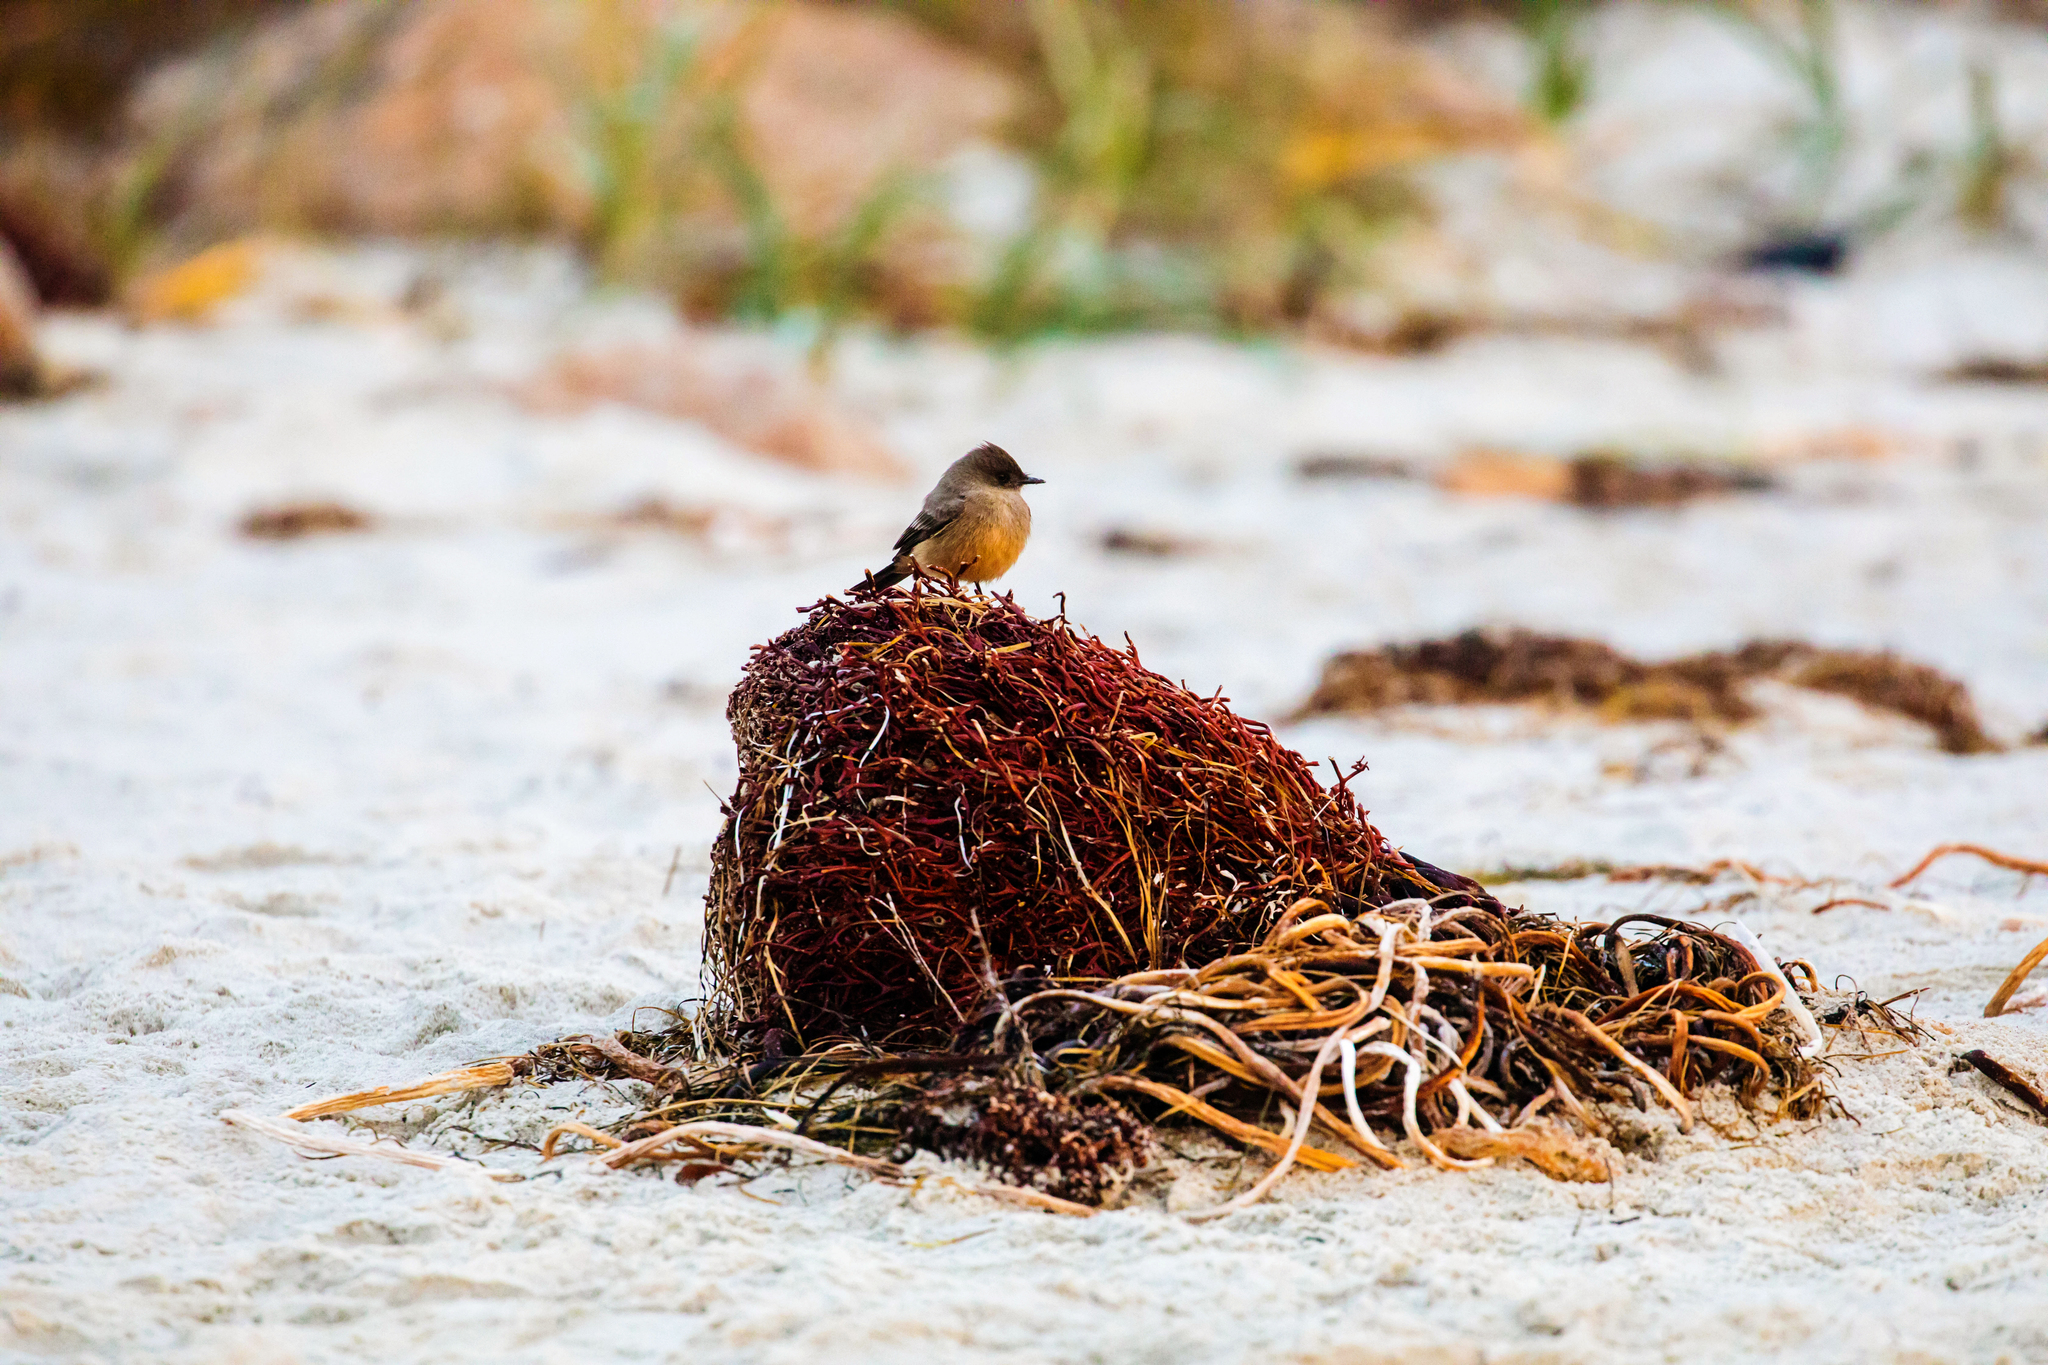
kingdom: Animalia
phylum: Chordata
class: Aves
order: Passeriformes
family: Tyrannidae
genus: Sayornis
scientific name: Sayornis saya
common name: Say's phoebe
